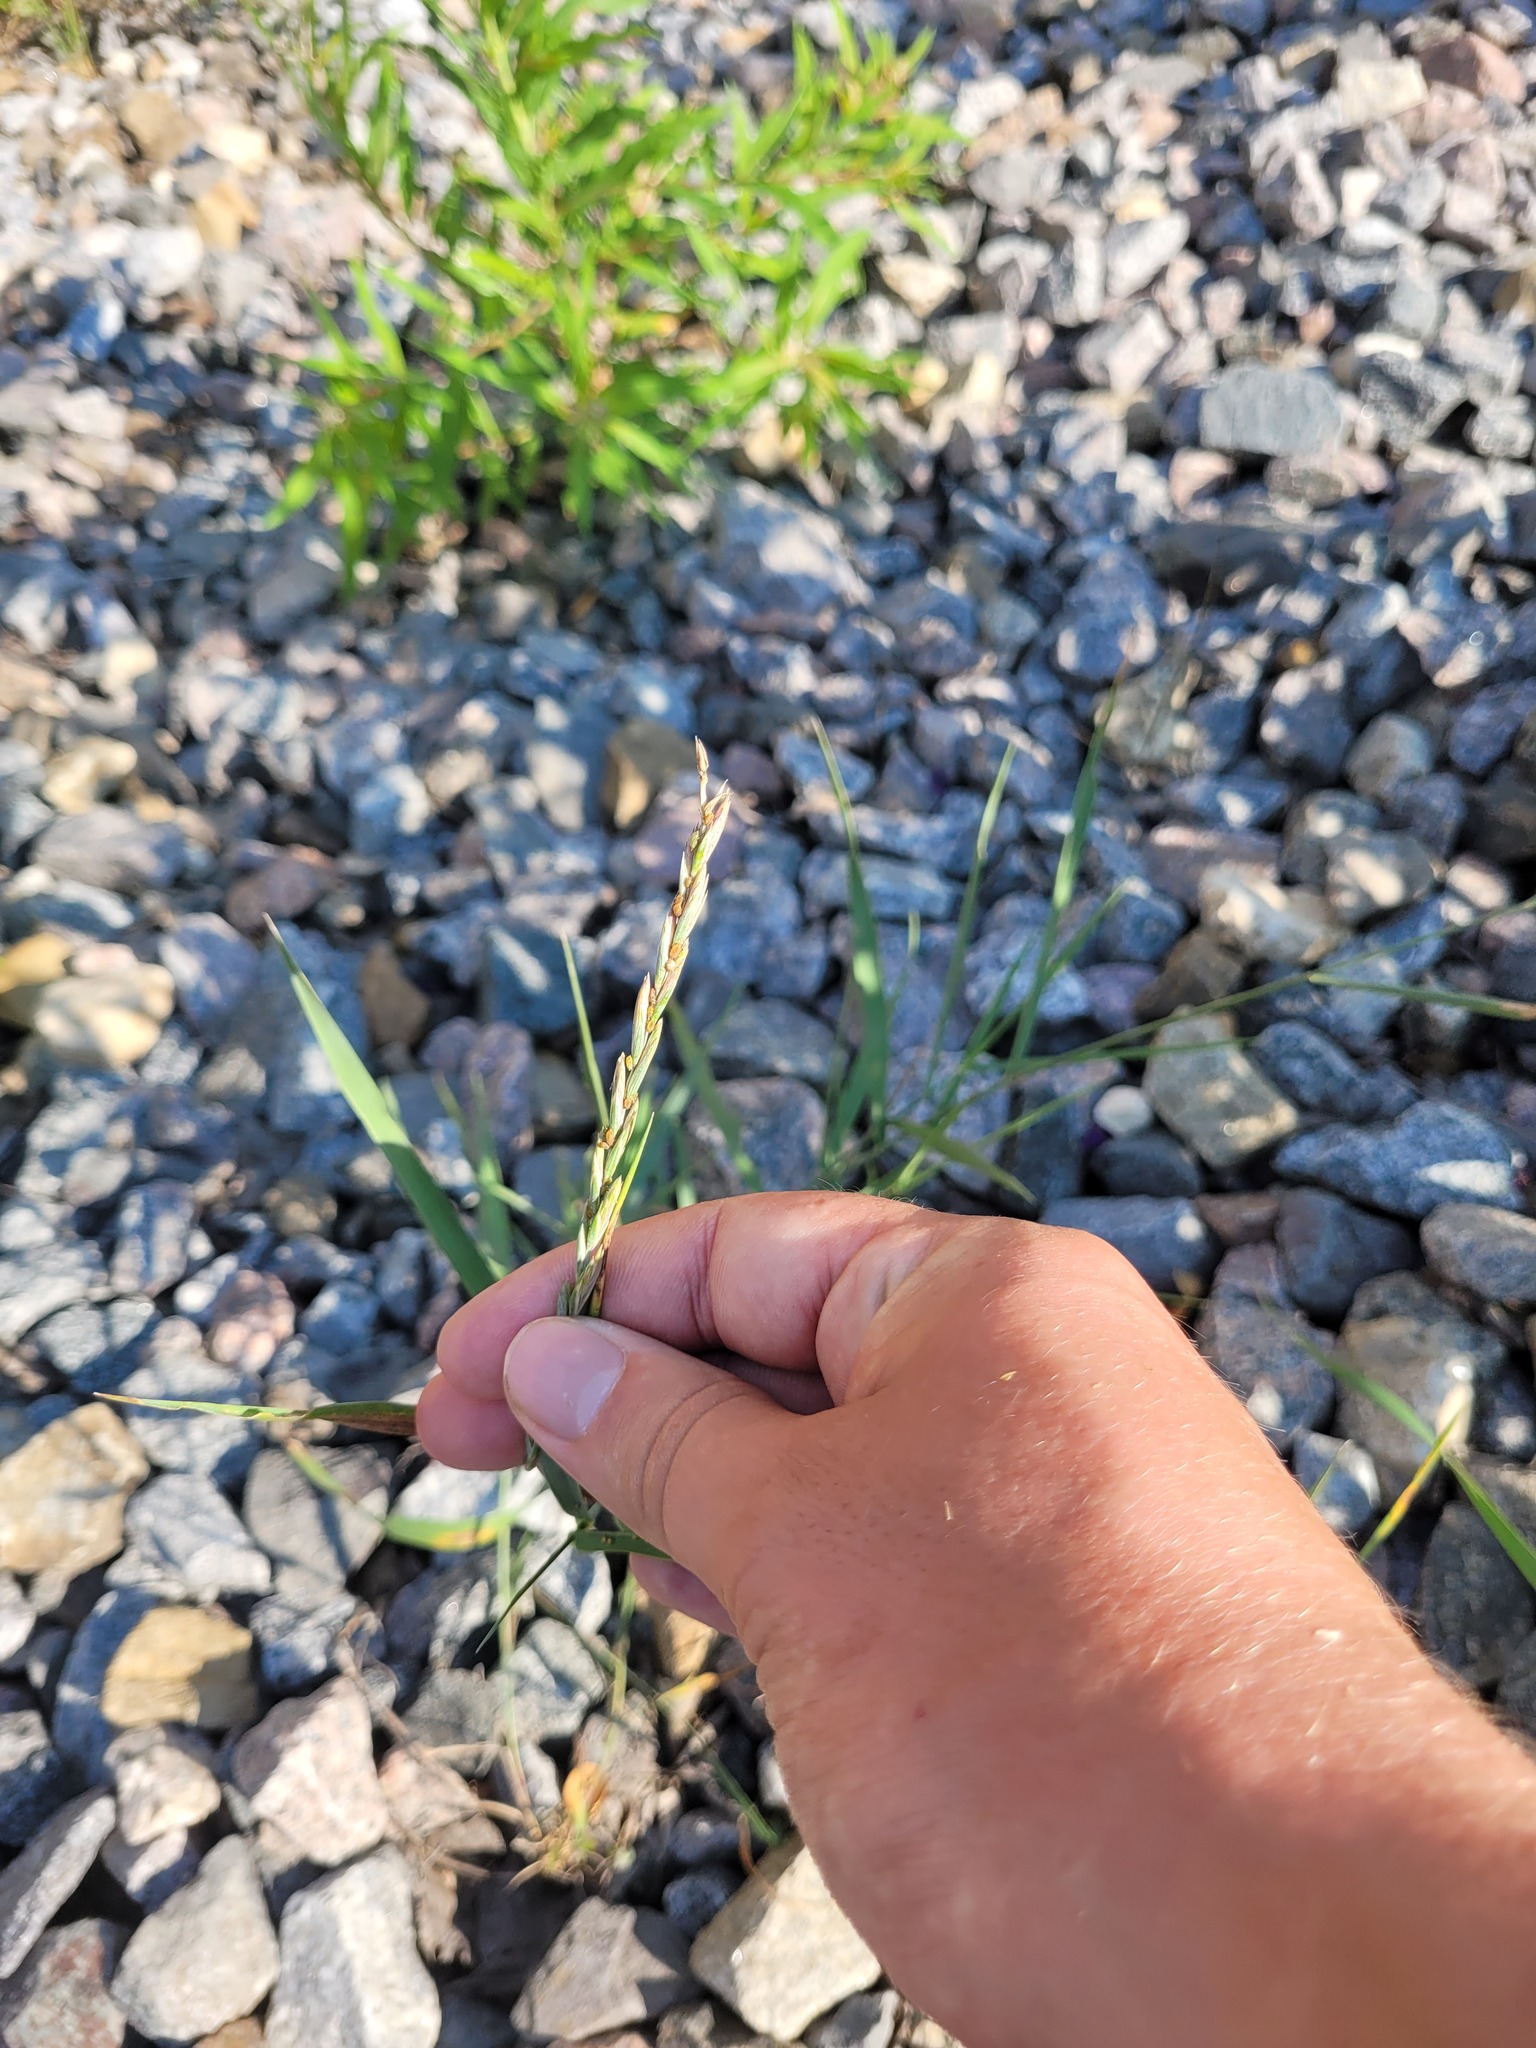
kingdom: Plantae
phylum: Tracheophyta
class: Liliopsida
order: Poales
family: Poaceae
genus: Elymus
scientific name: Elymus repens
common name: Quackgrass
